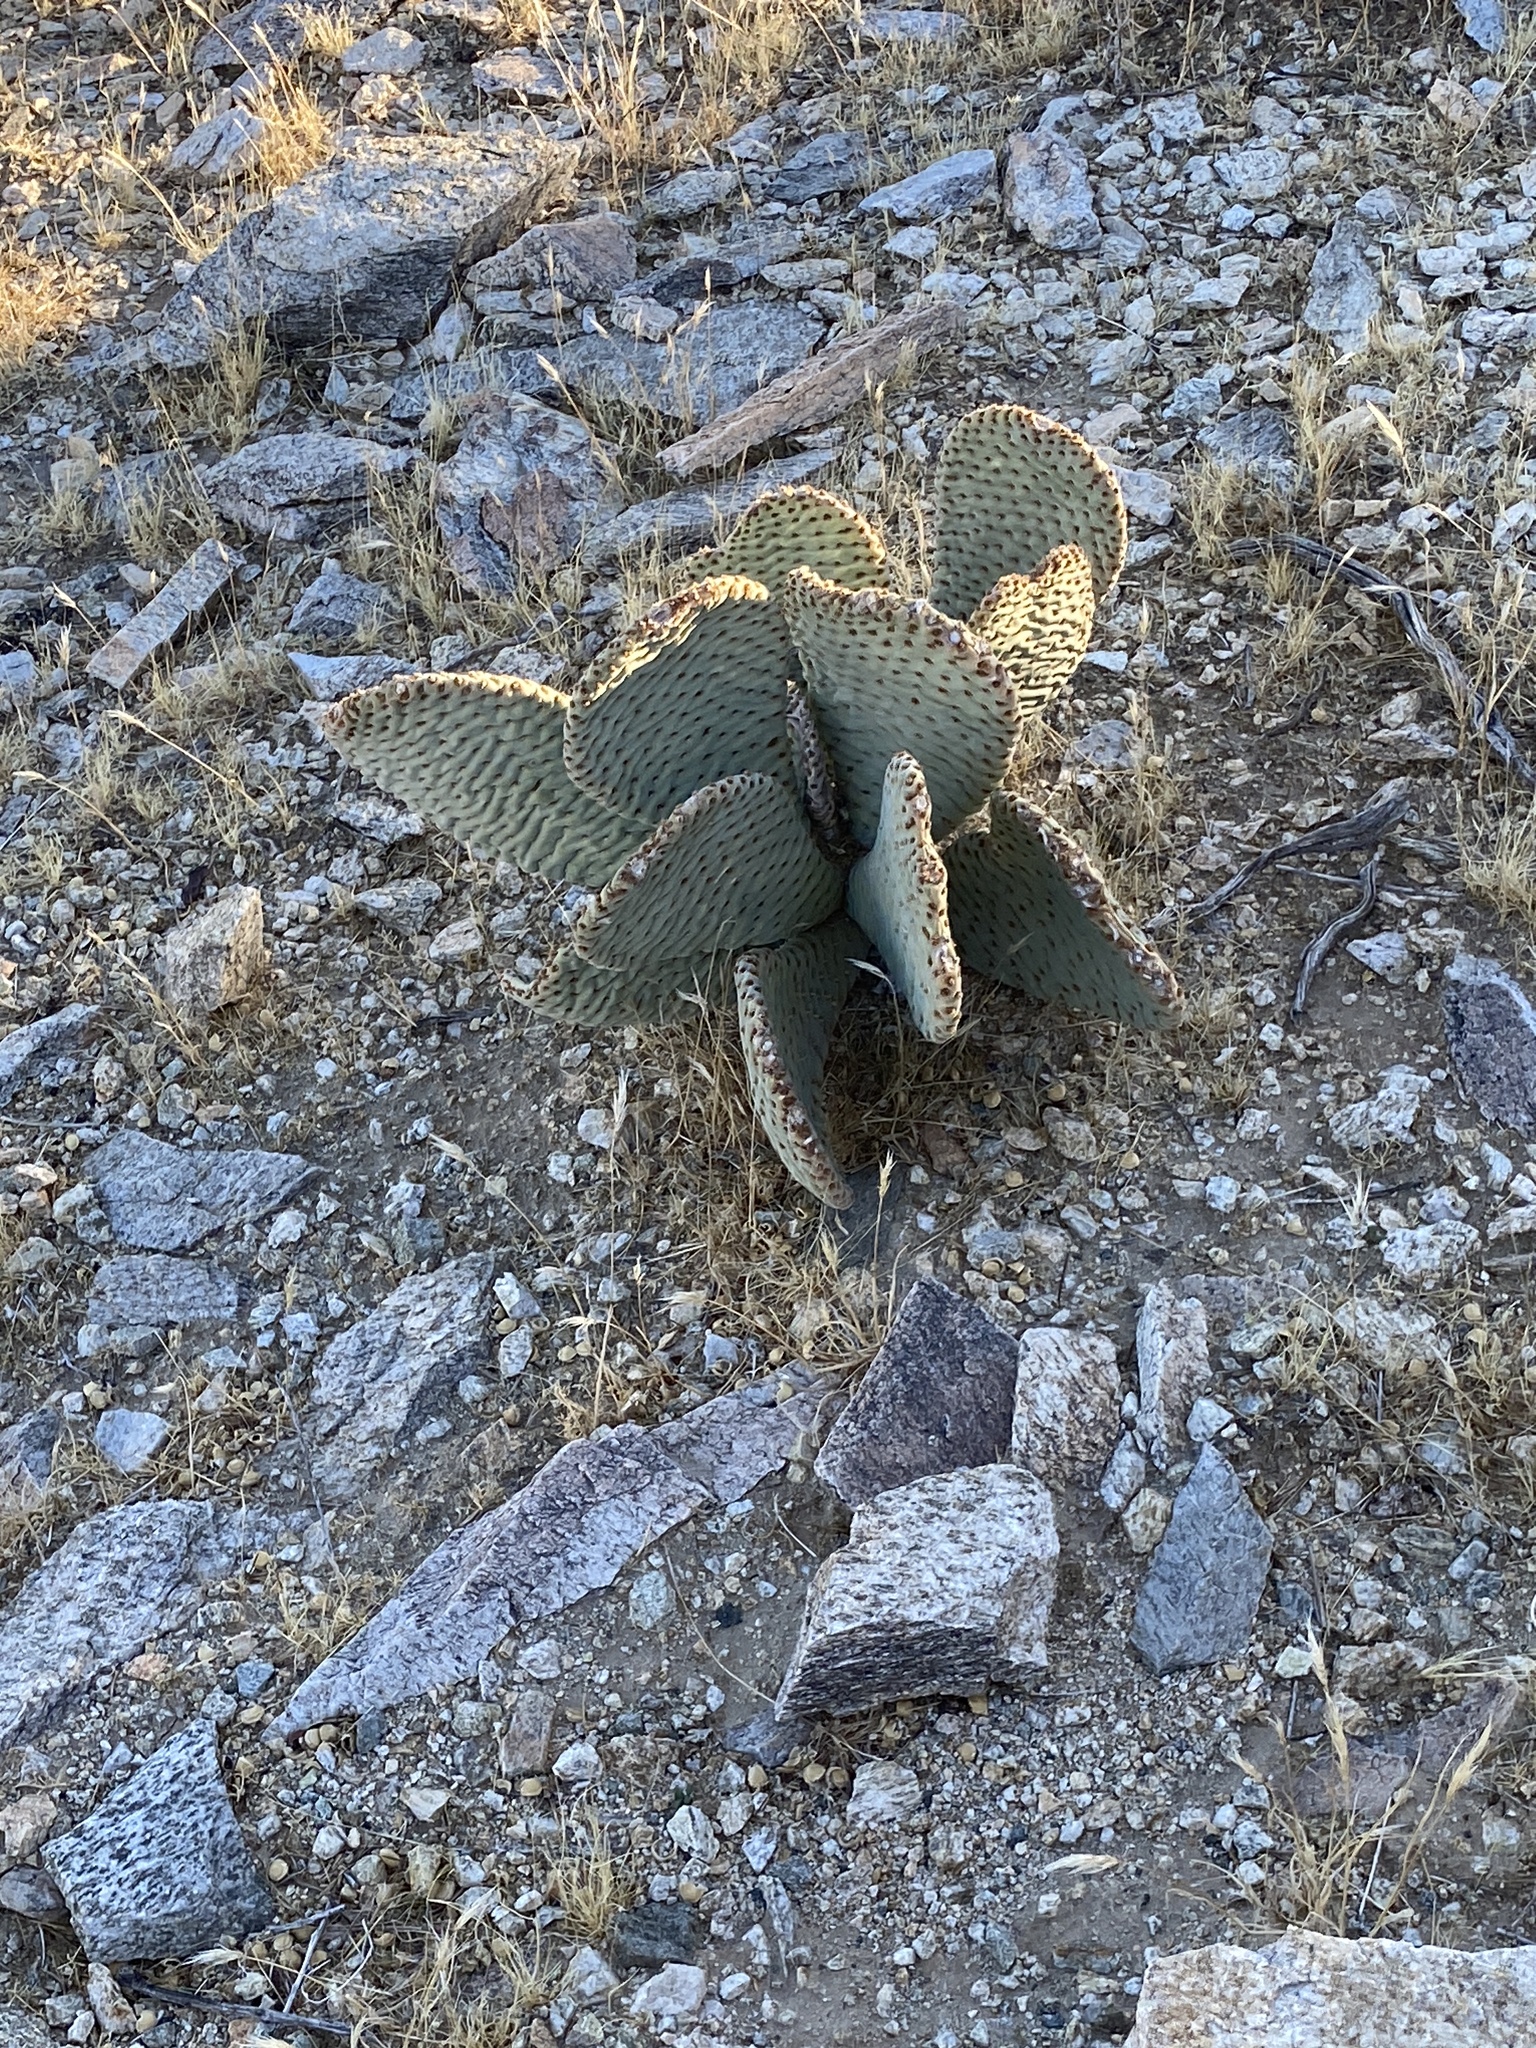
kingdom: Plantae
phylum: Tracheophyta
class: Magnoliopsida
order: Caryophyllales
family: Cactaceae
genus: Opuntia
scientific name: Opuntia basilaris
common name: Beavertail prickly-pear
